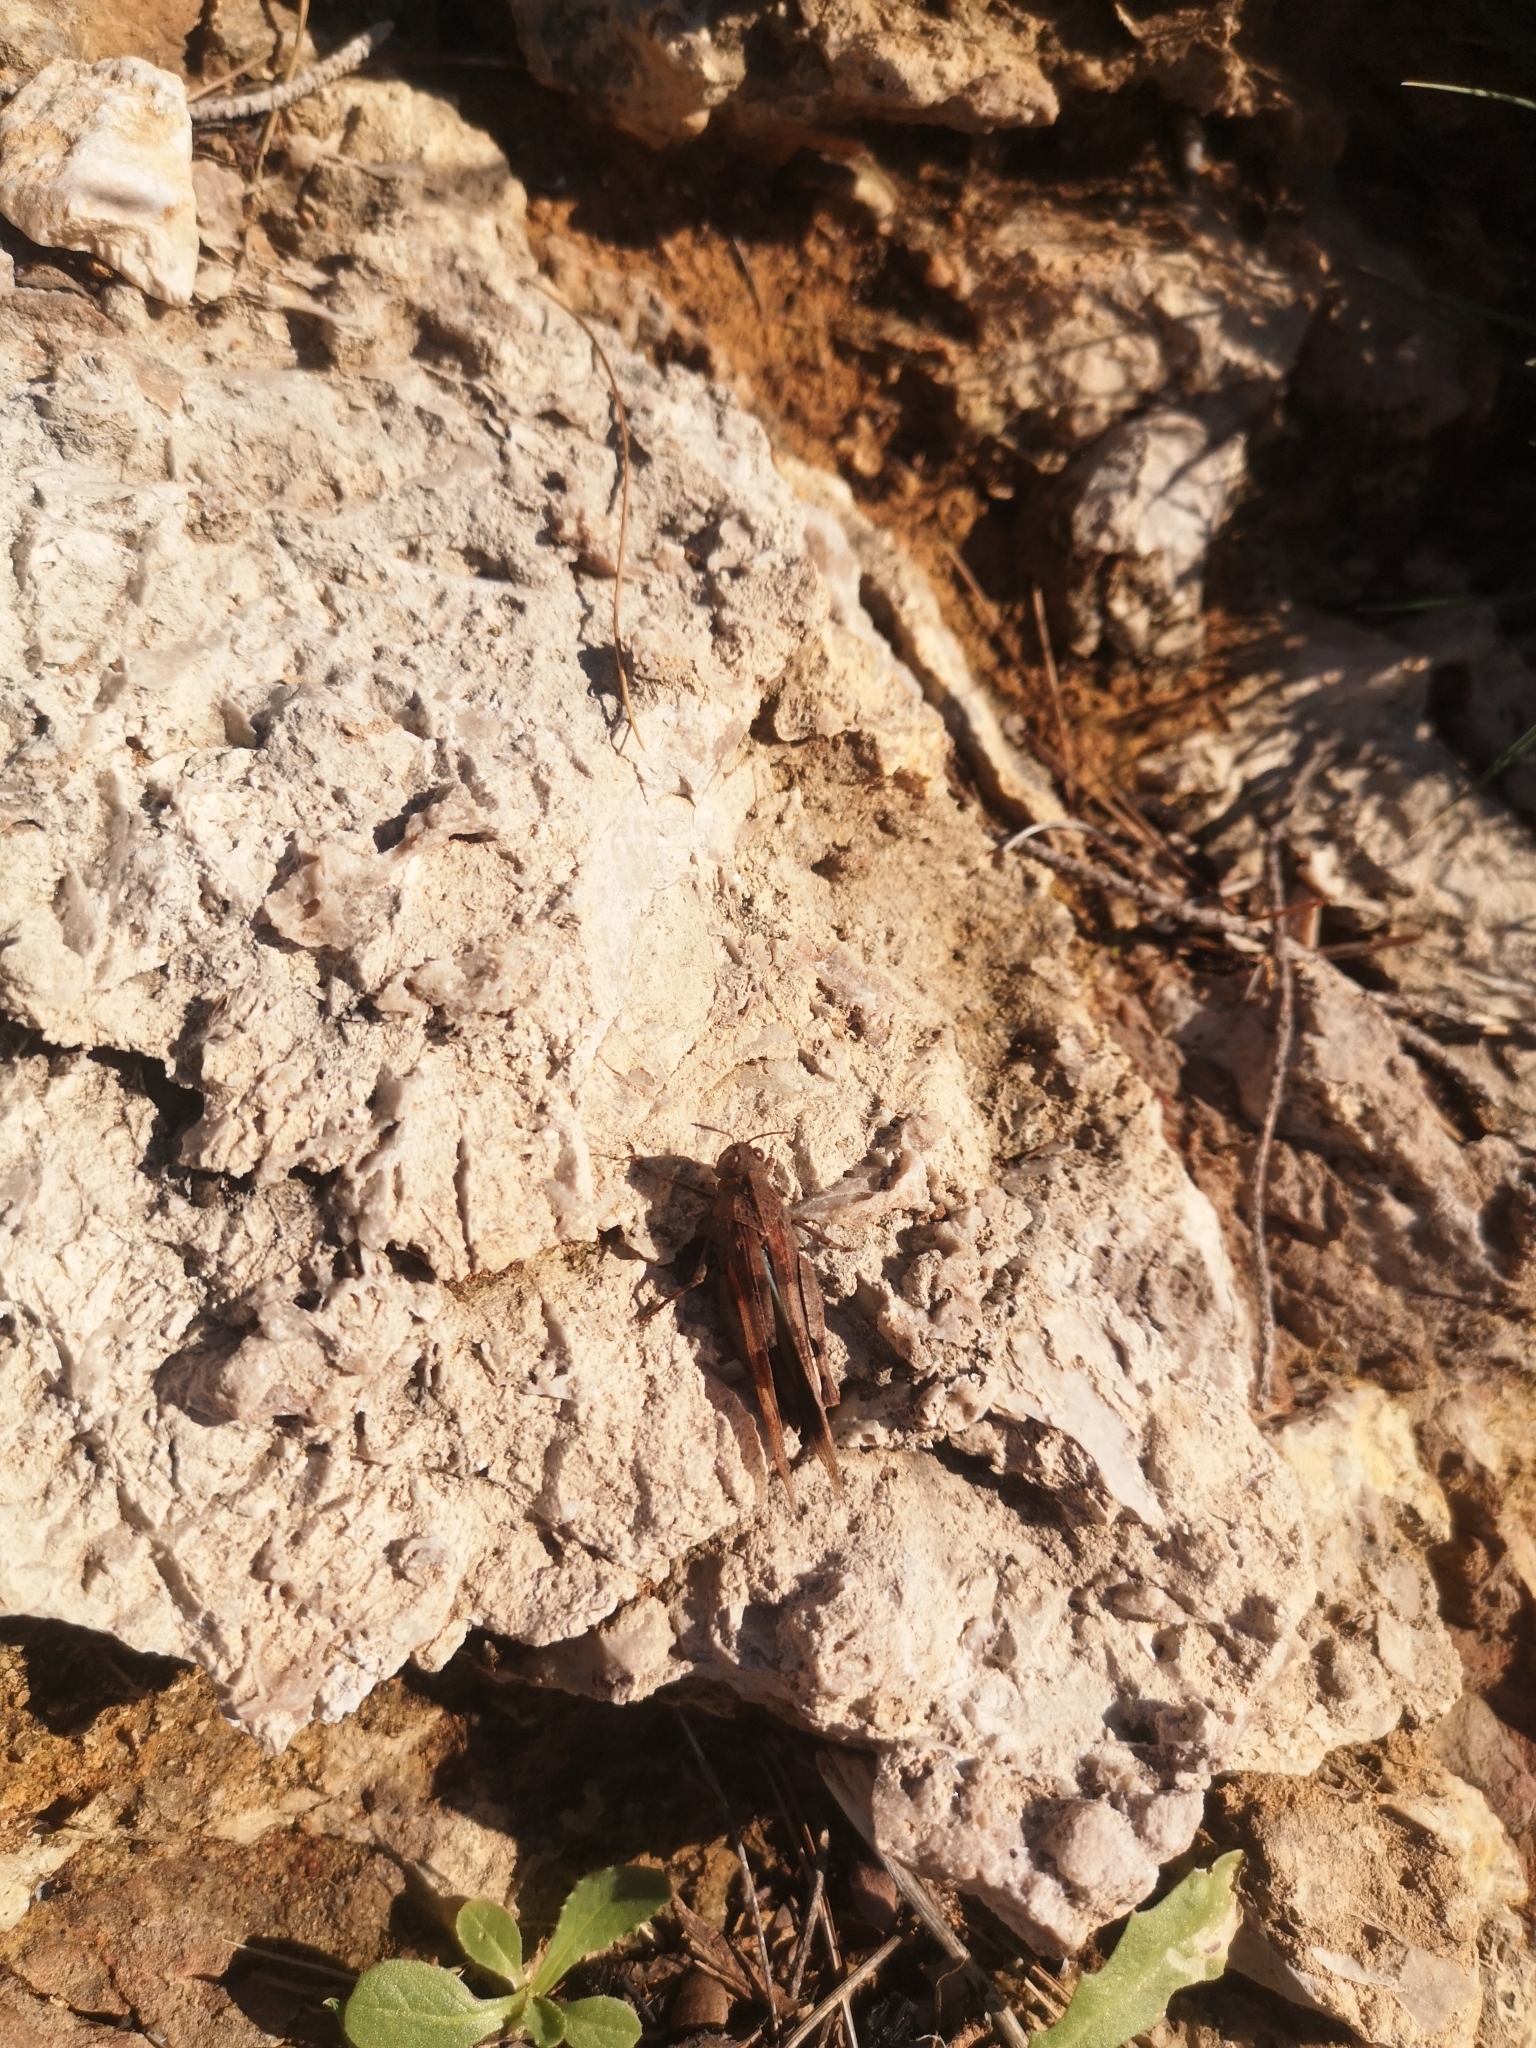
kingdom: Animalia
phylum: Arthropoda
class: Insecta
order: Orthoptera
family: Acrididae
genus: Oedipoda
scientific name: Oedipoda caerulescens
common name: Blue-winged grasshopper
